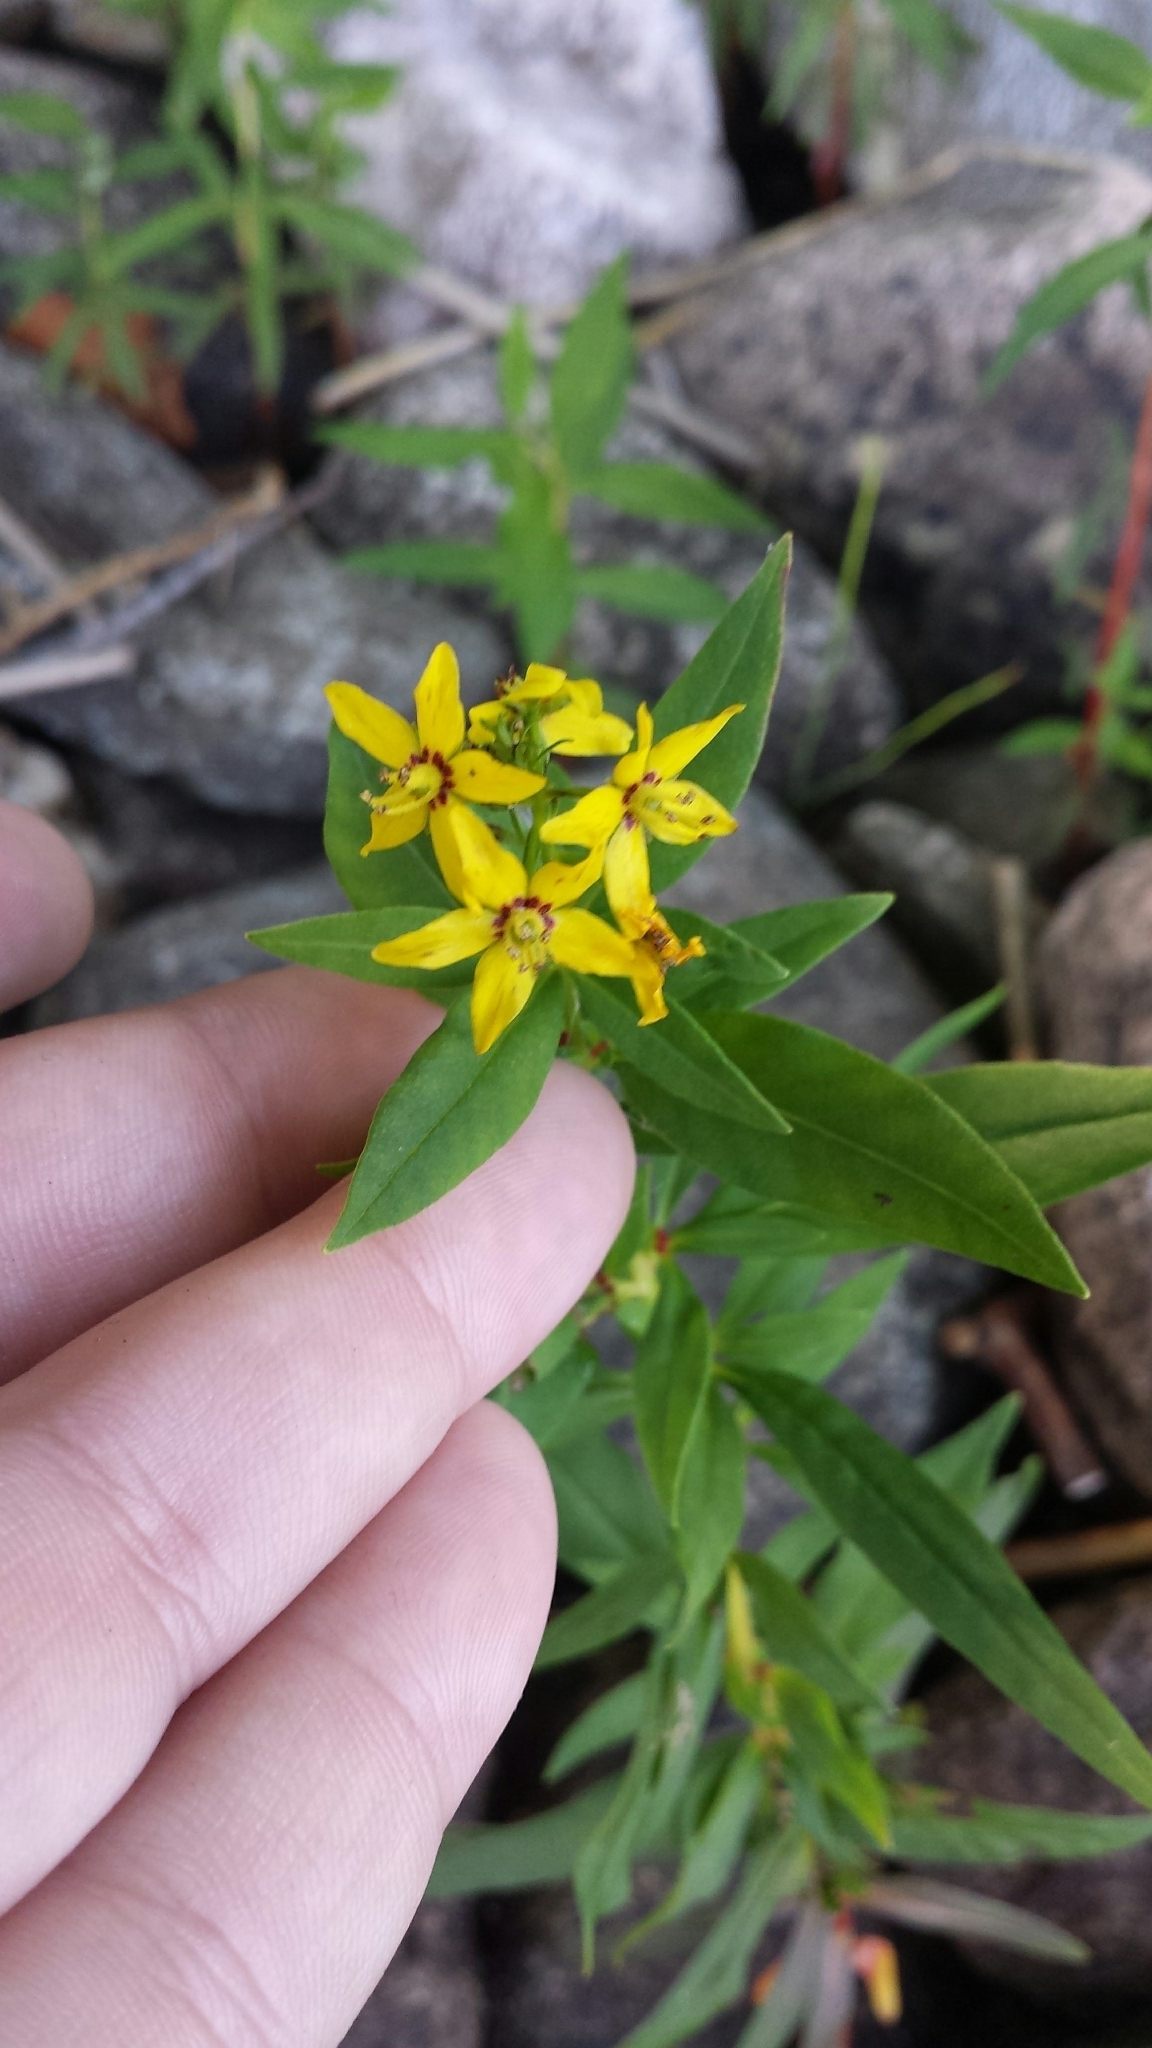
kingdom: Plantae
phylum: Tracheophyta
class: Magnoliopsida
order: Ericales
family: Primulaceae
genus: Lysimachia
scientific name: Lysimachia terrestris
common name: Lake loosestrife
